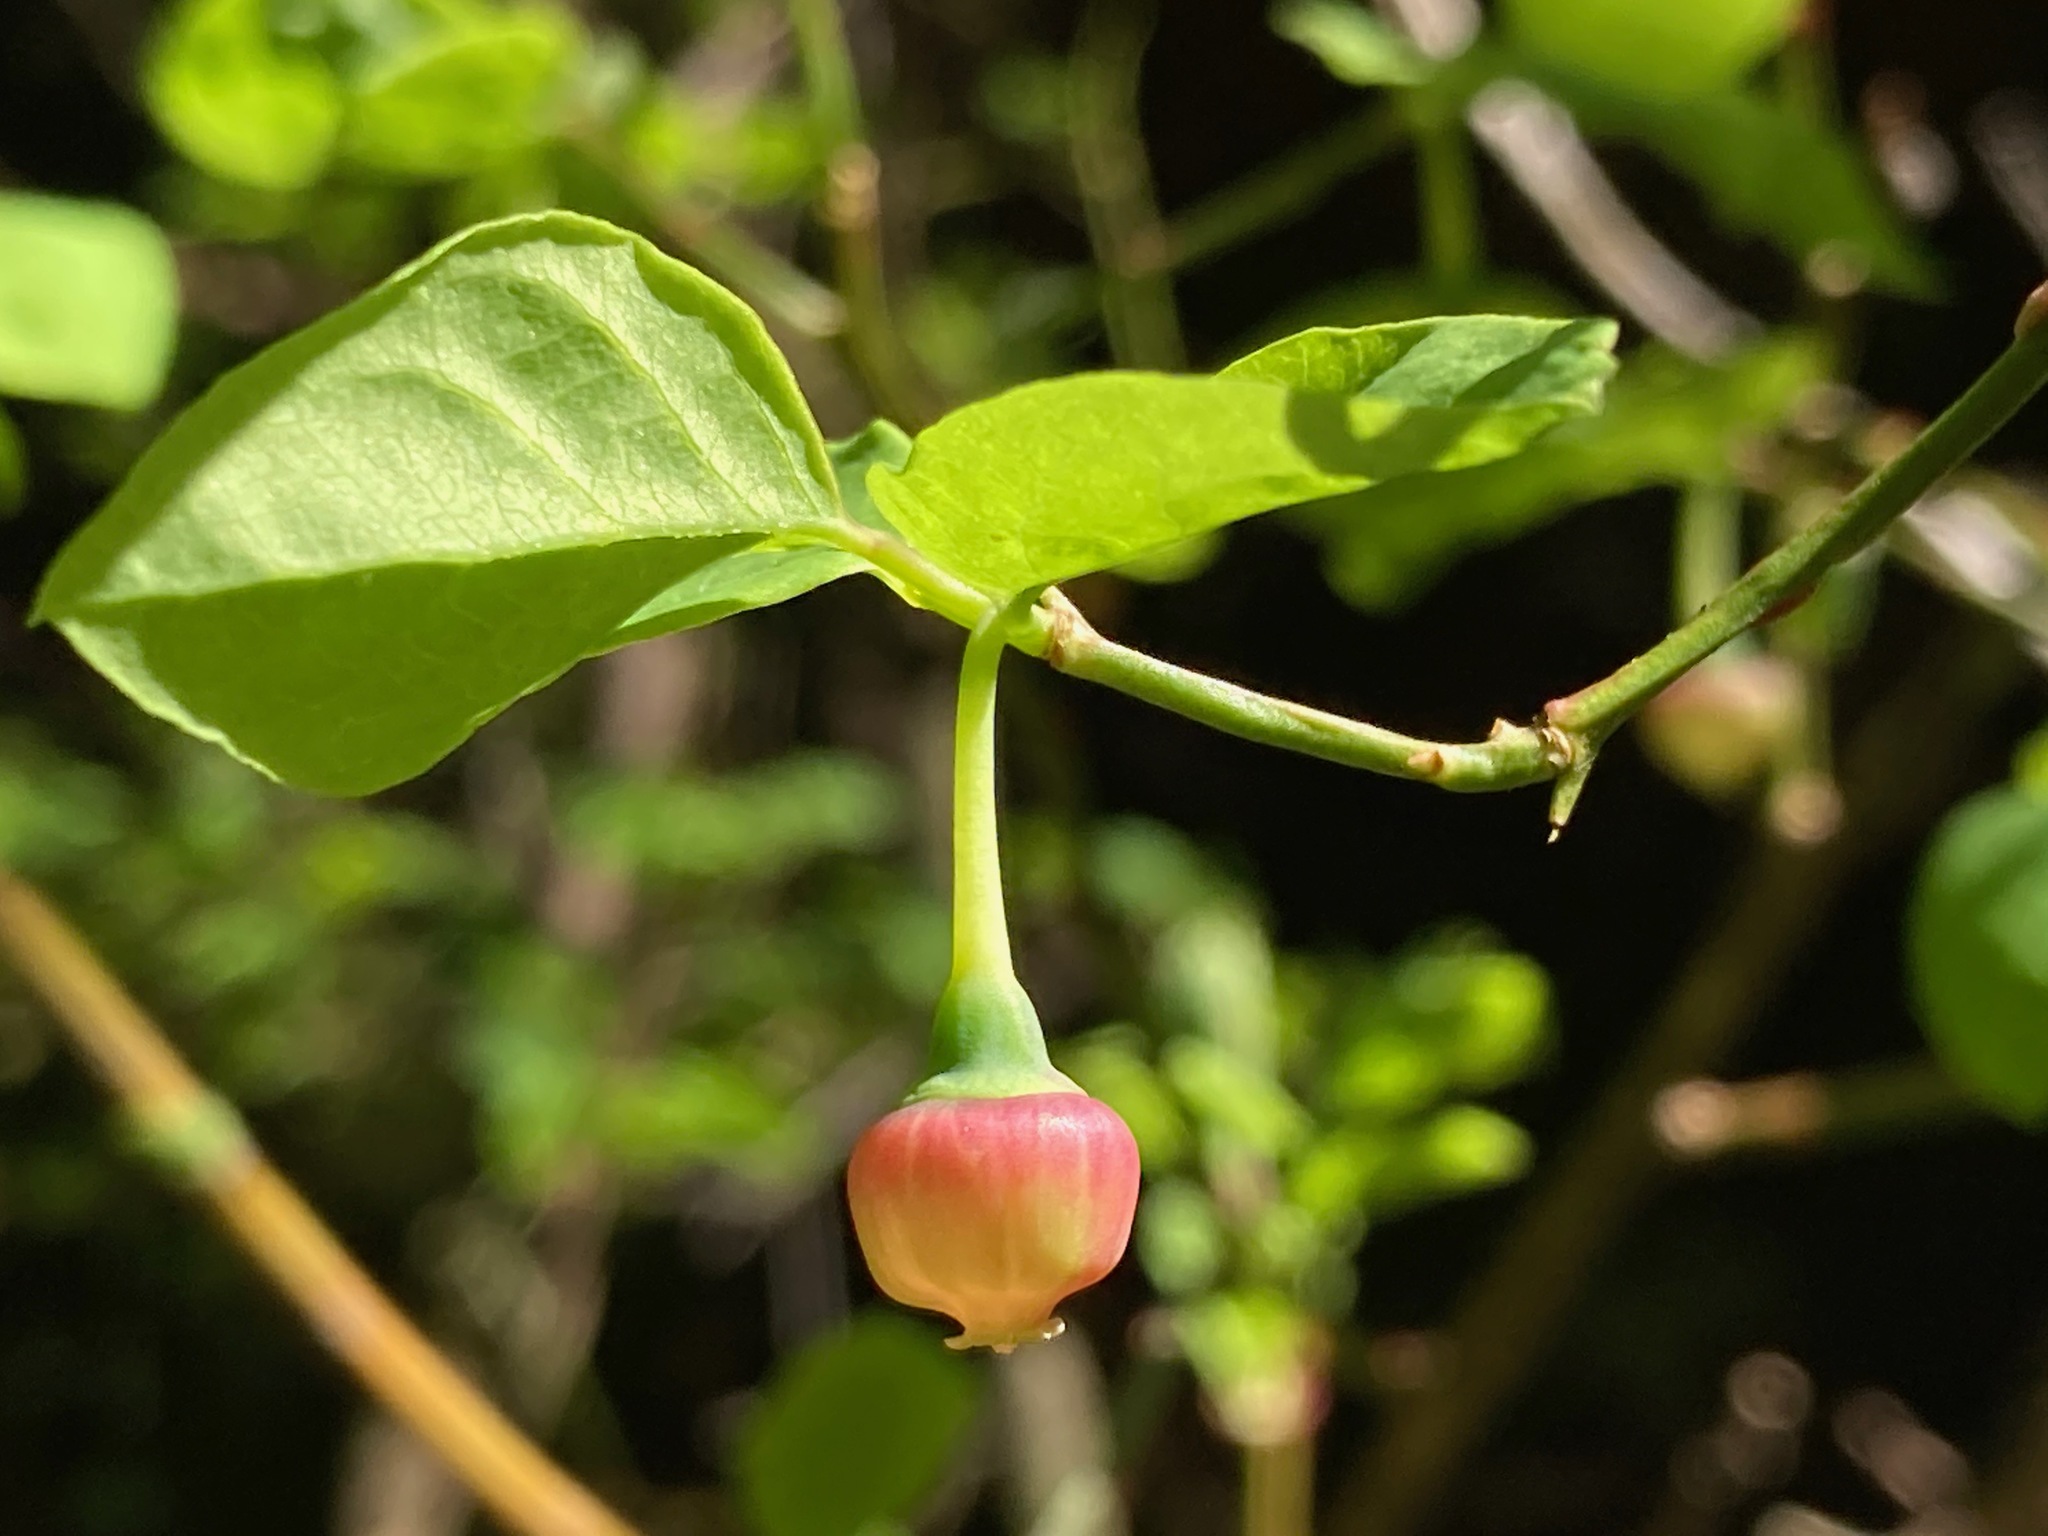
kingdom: Plantae
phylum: Tracheophyta
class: Magnoliopsida
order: Ericales
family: Ericaceae
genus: Vaccinium
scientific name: Vaccinium parvifolium
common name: Red-huckleberry
